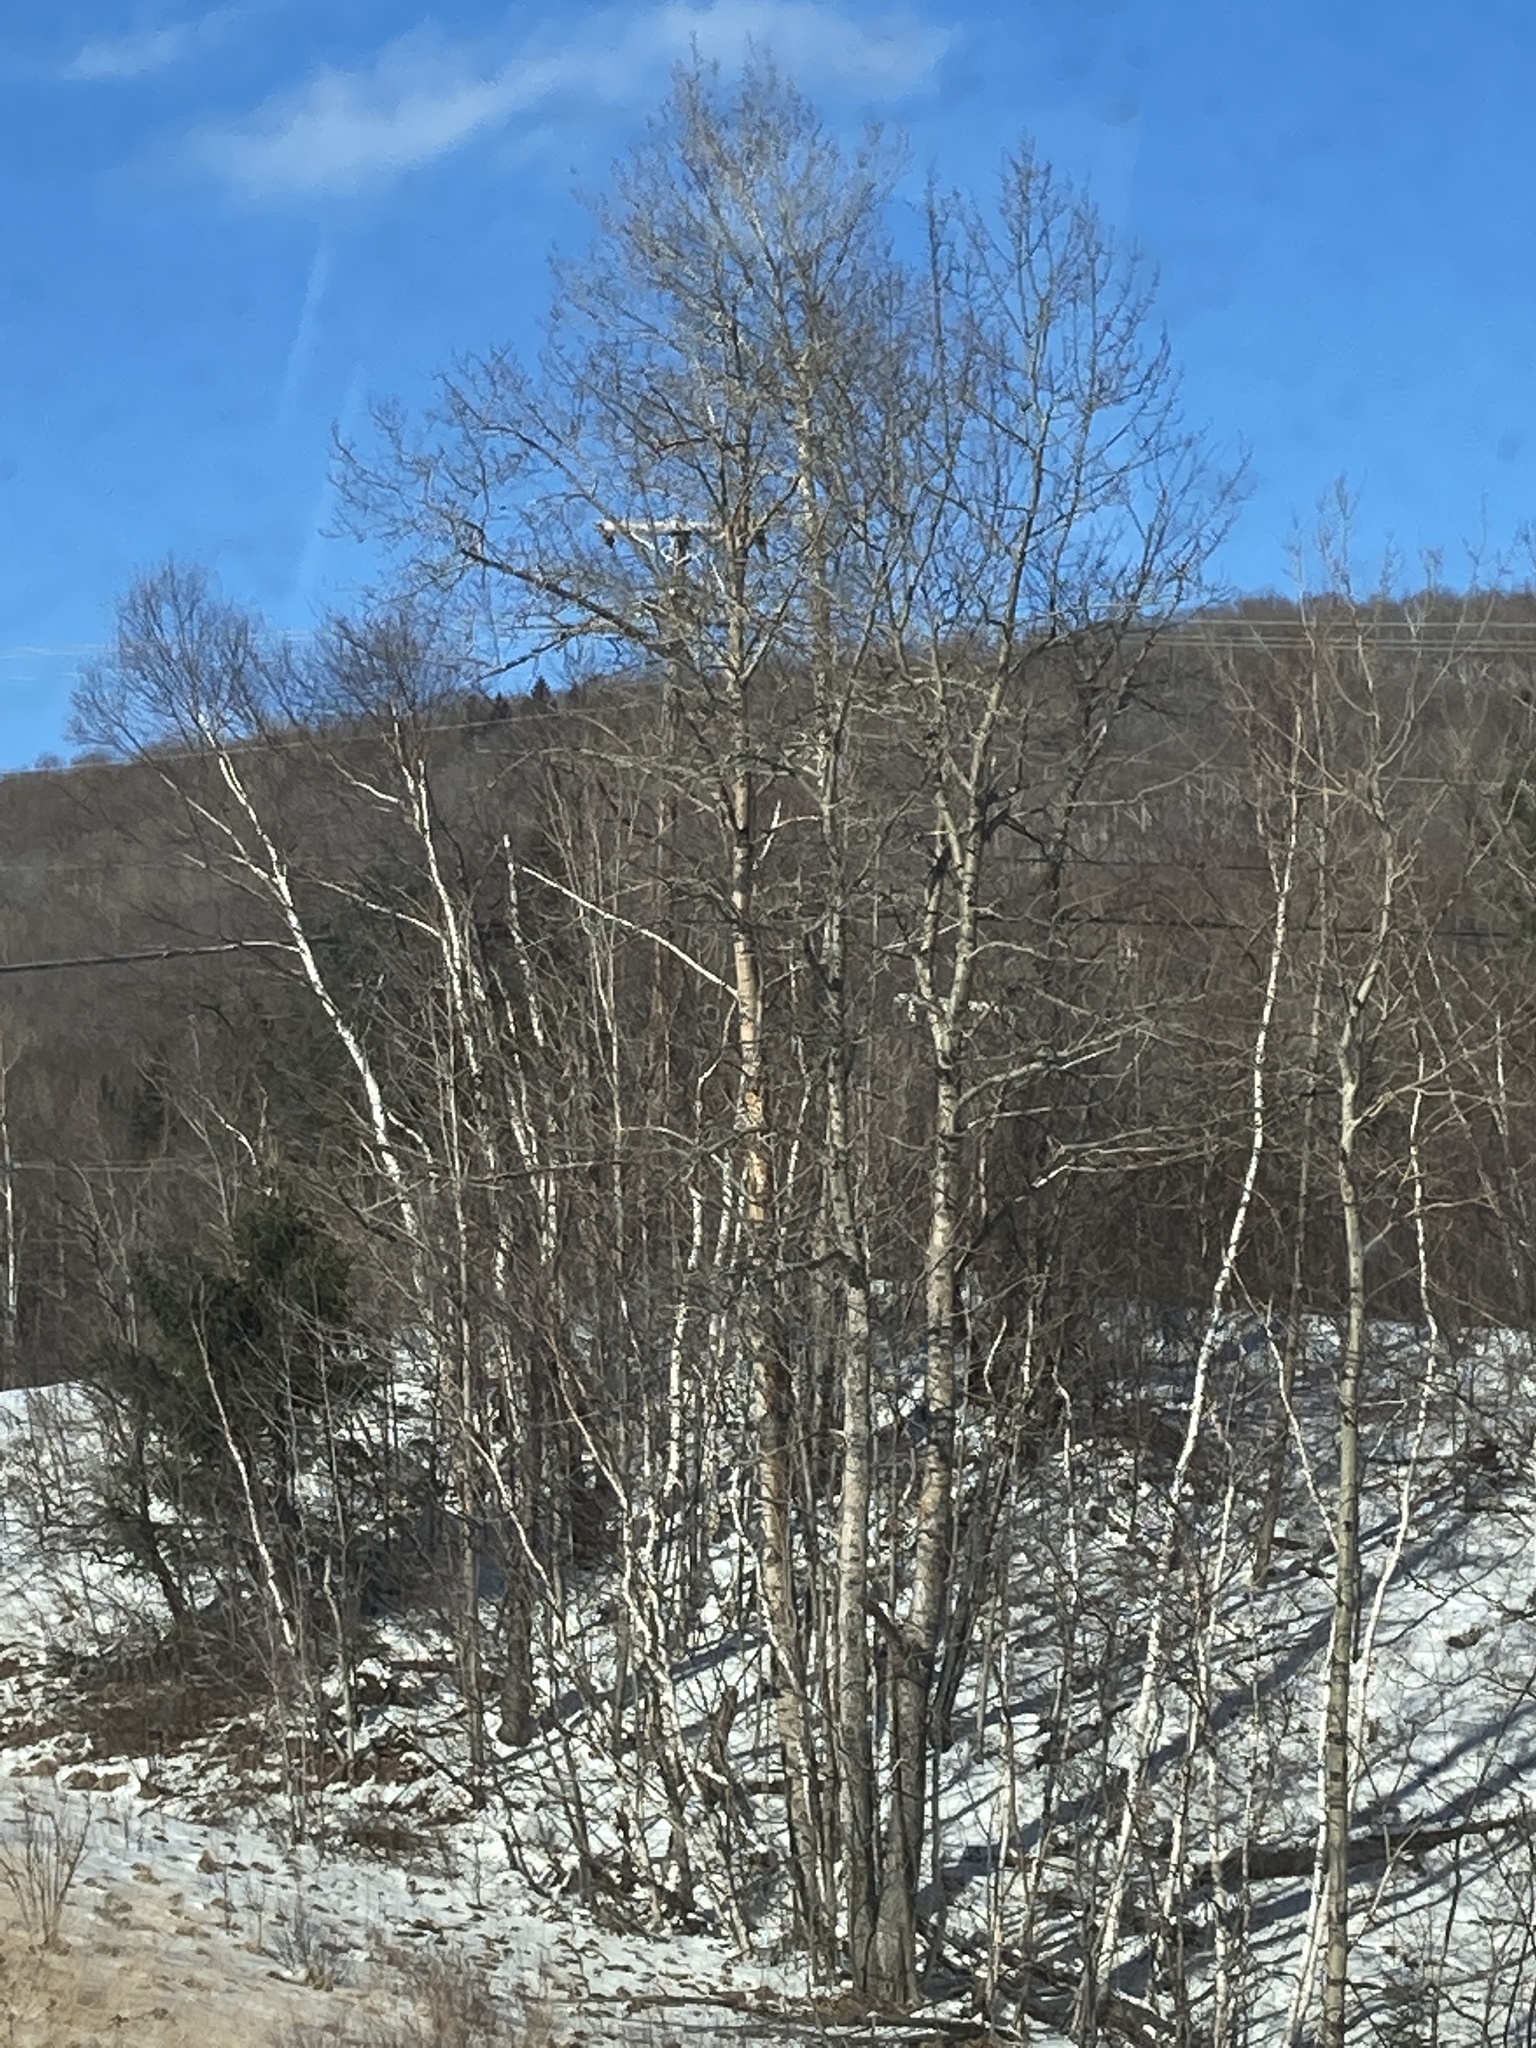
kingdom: Plantae
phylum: Tracheophyta
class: Magnoliopsida
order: Malpighiales
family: Salicaceae
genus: Populus
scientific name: Populus tremuloides
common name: Quaking aspen
